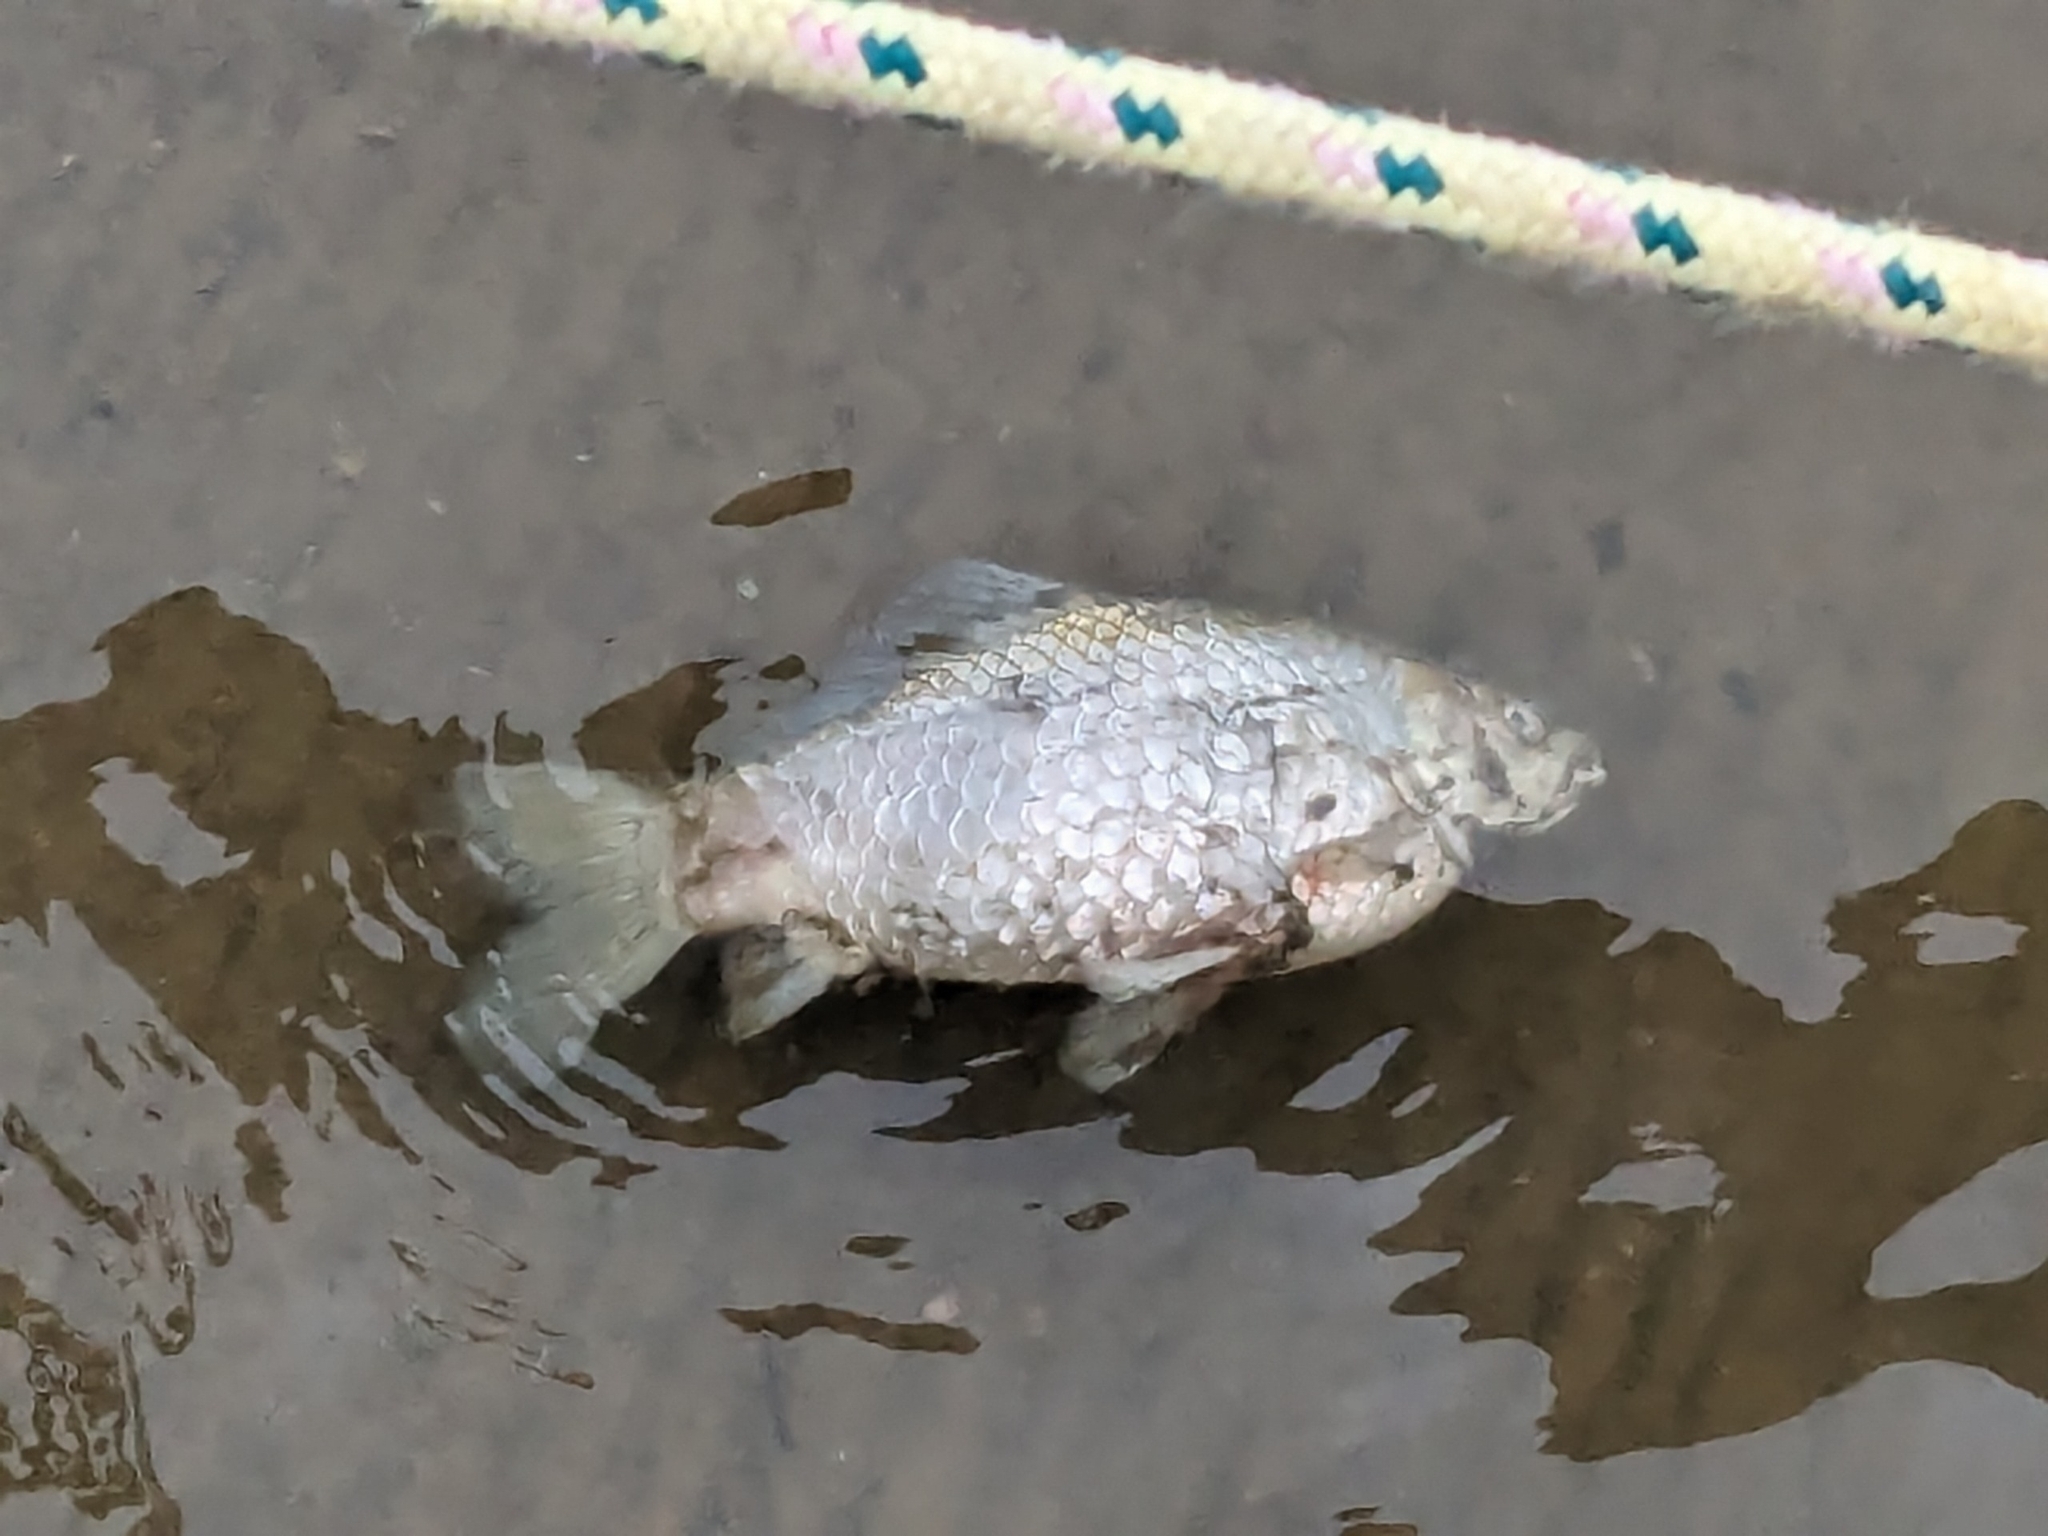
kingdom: Animalia
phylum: Chordata
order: Cypriniformes
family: Cyprinidae
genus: Carassius
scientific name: Carassius auratus
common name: Goldfish
